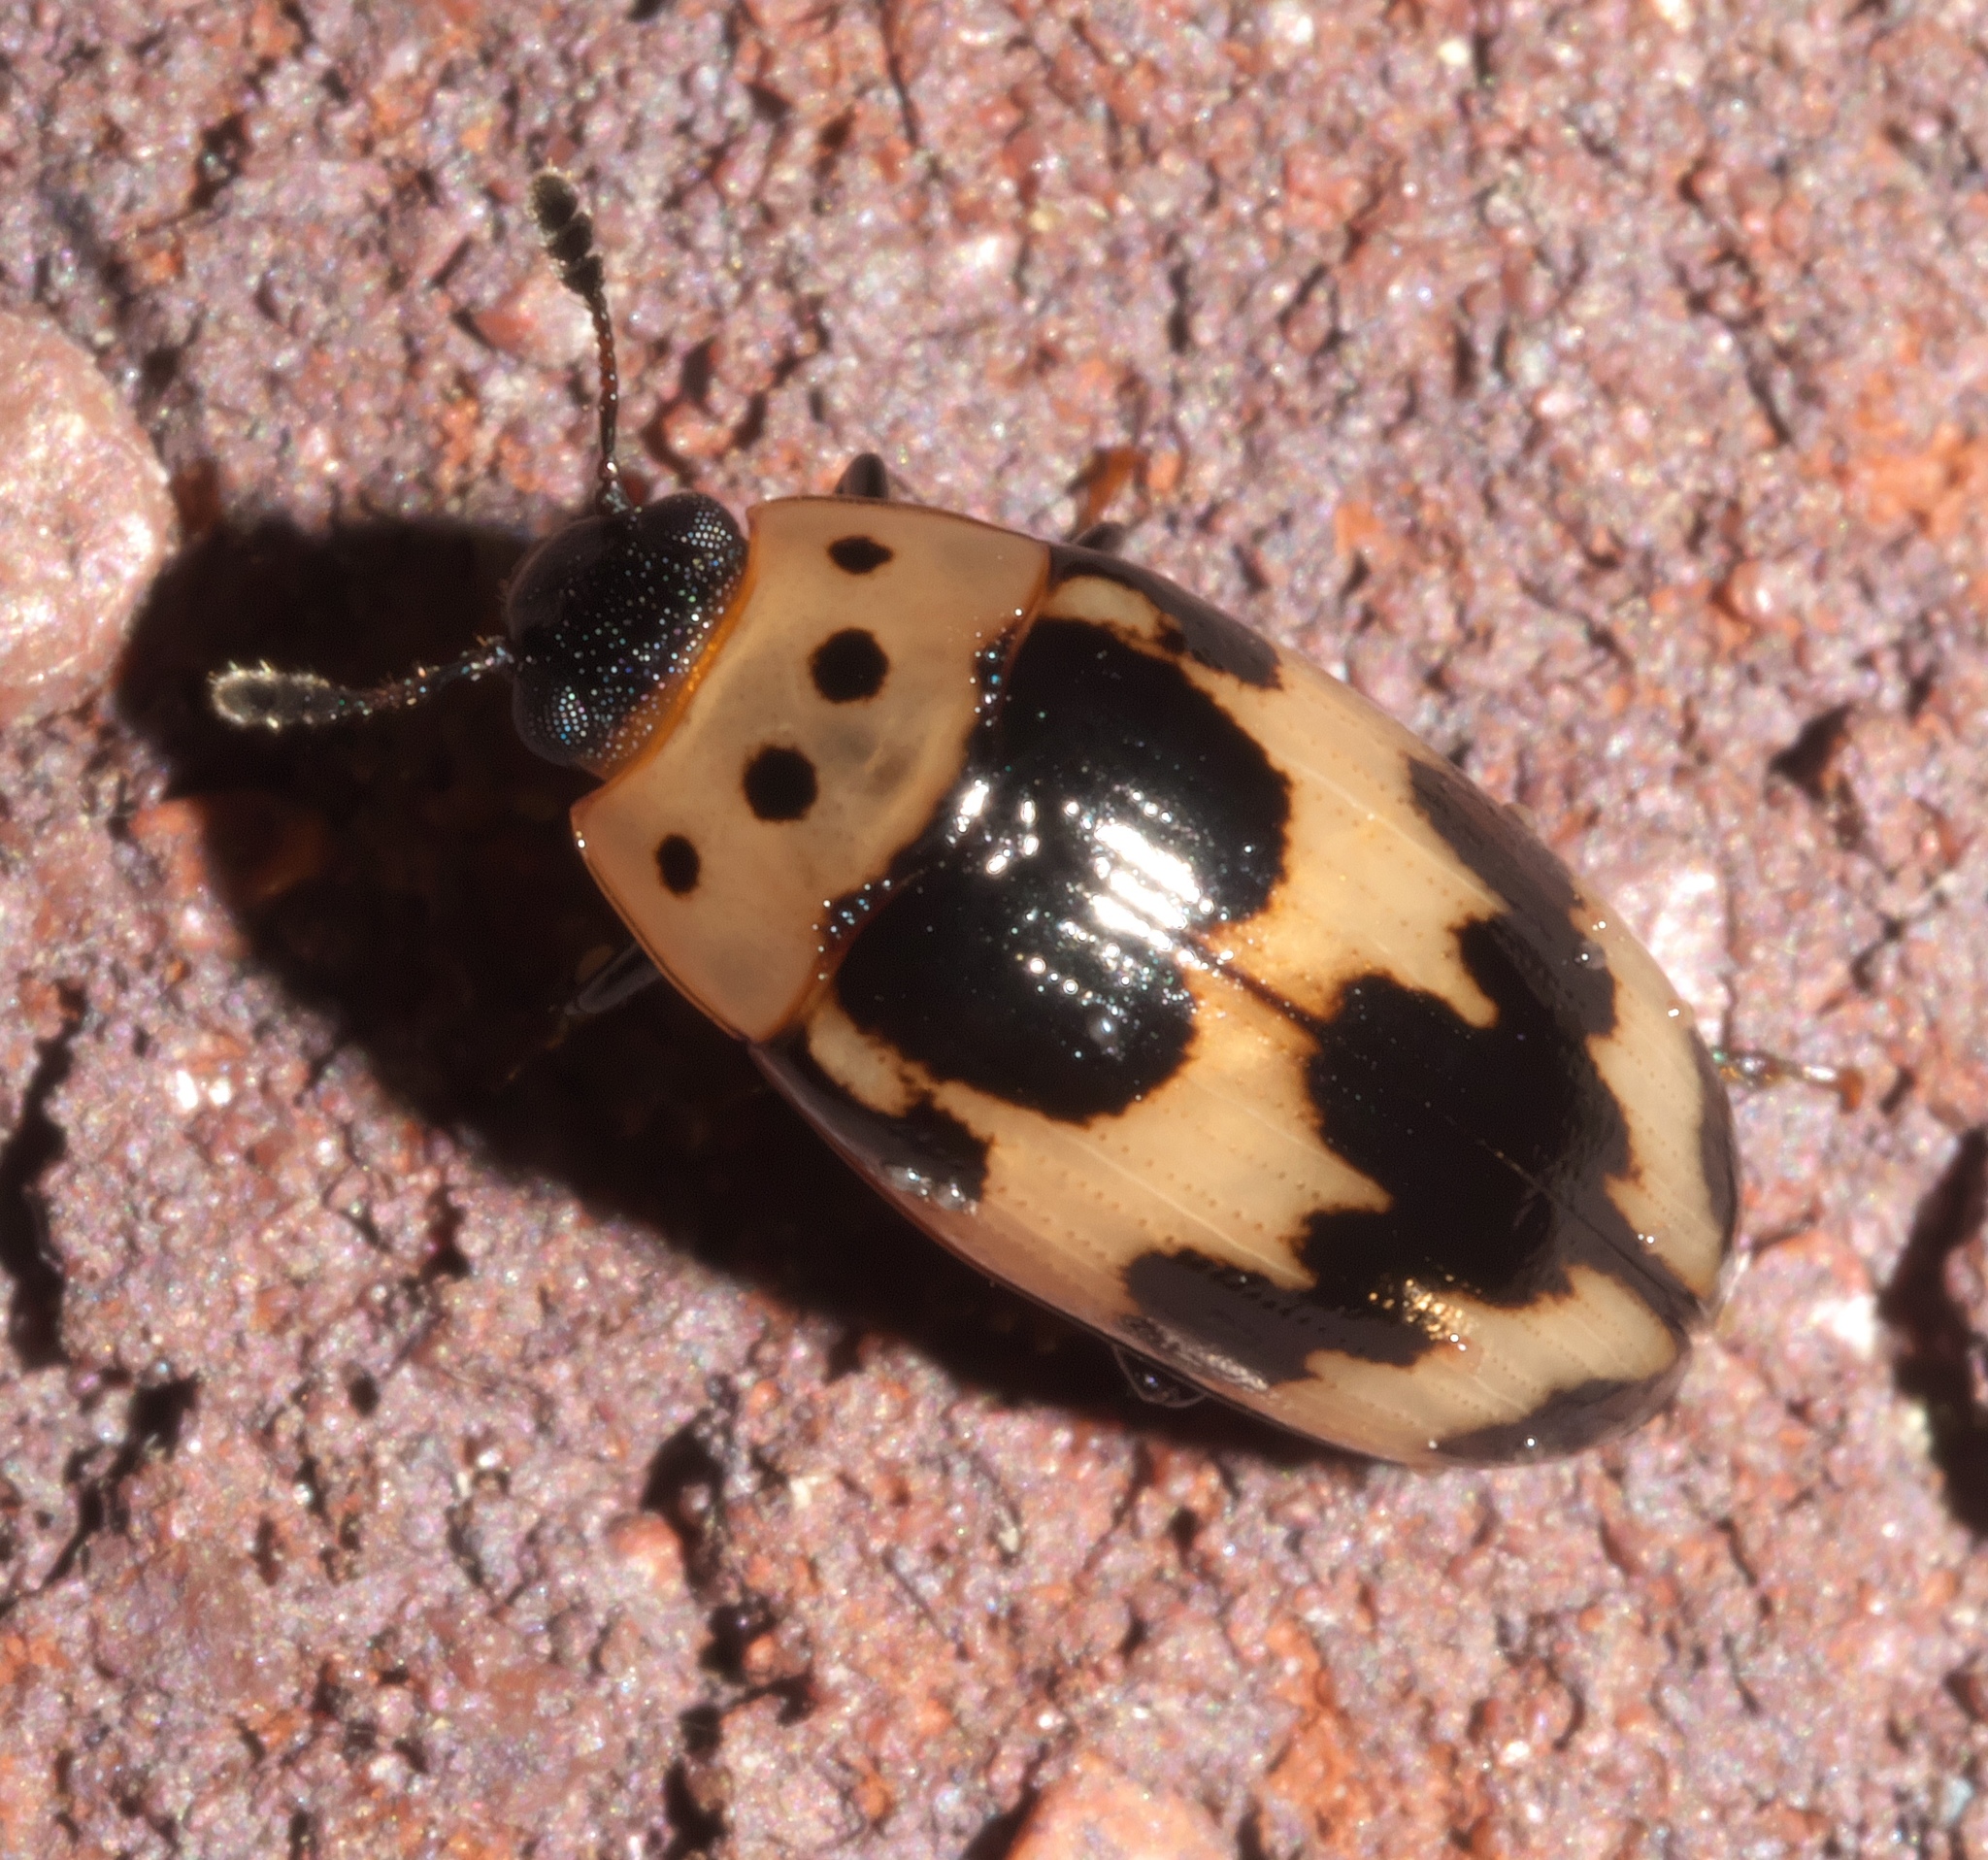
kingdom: Animalia
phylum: Arthropoda
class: Insecta
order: Coleoptera
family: Erotylidae
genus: Ischyrus
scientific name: Ischyrus quadripunctatus
